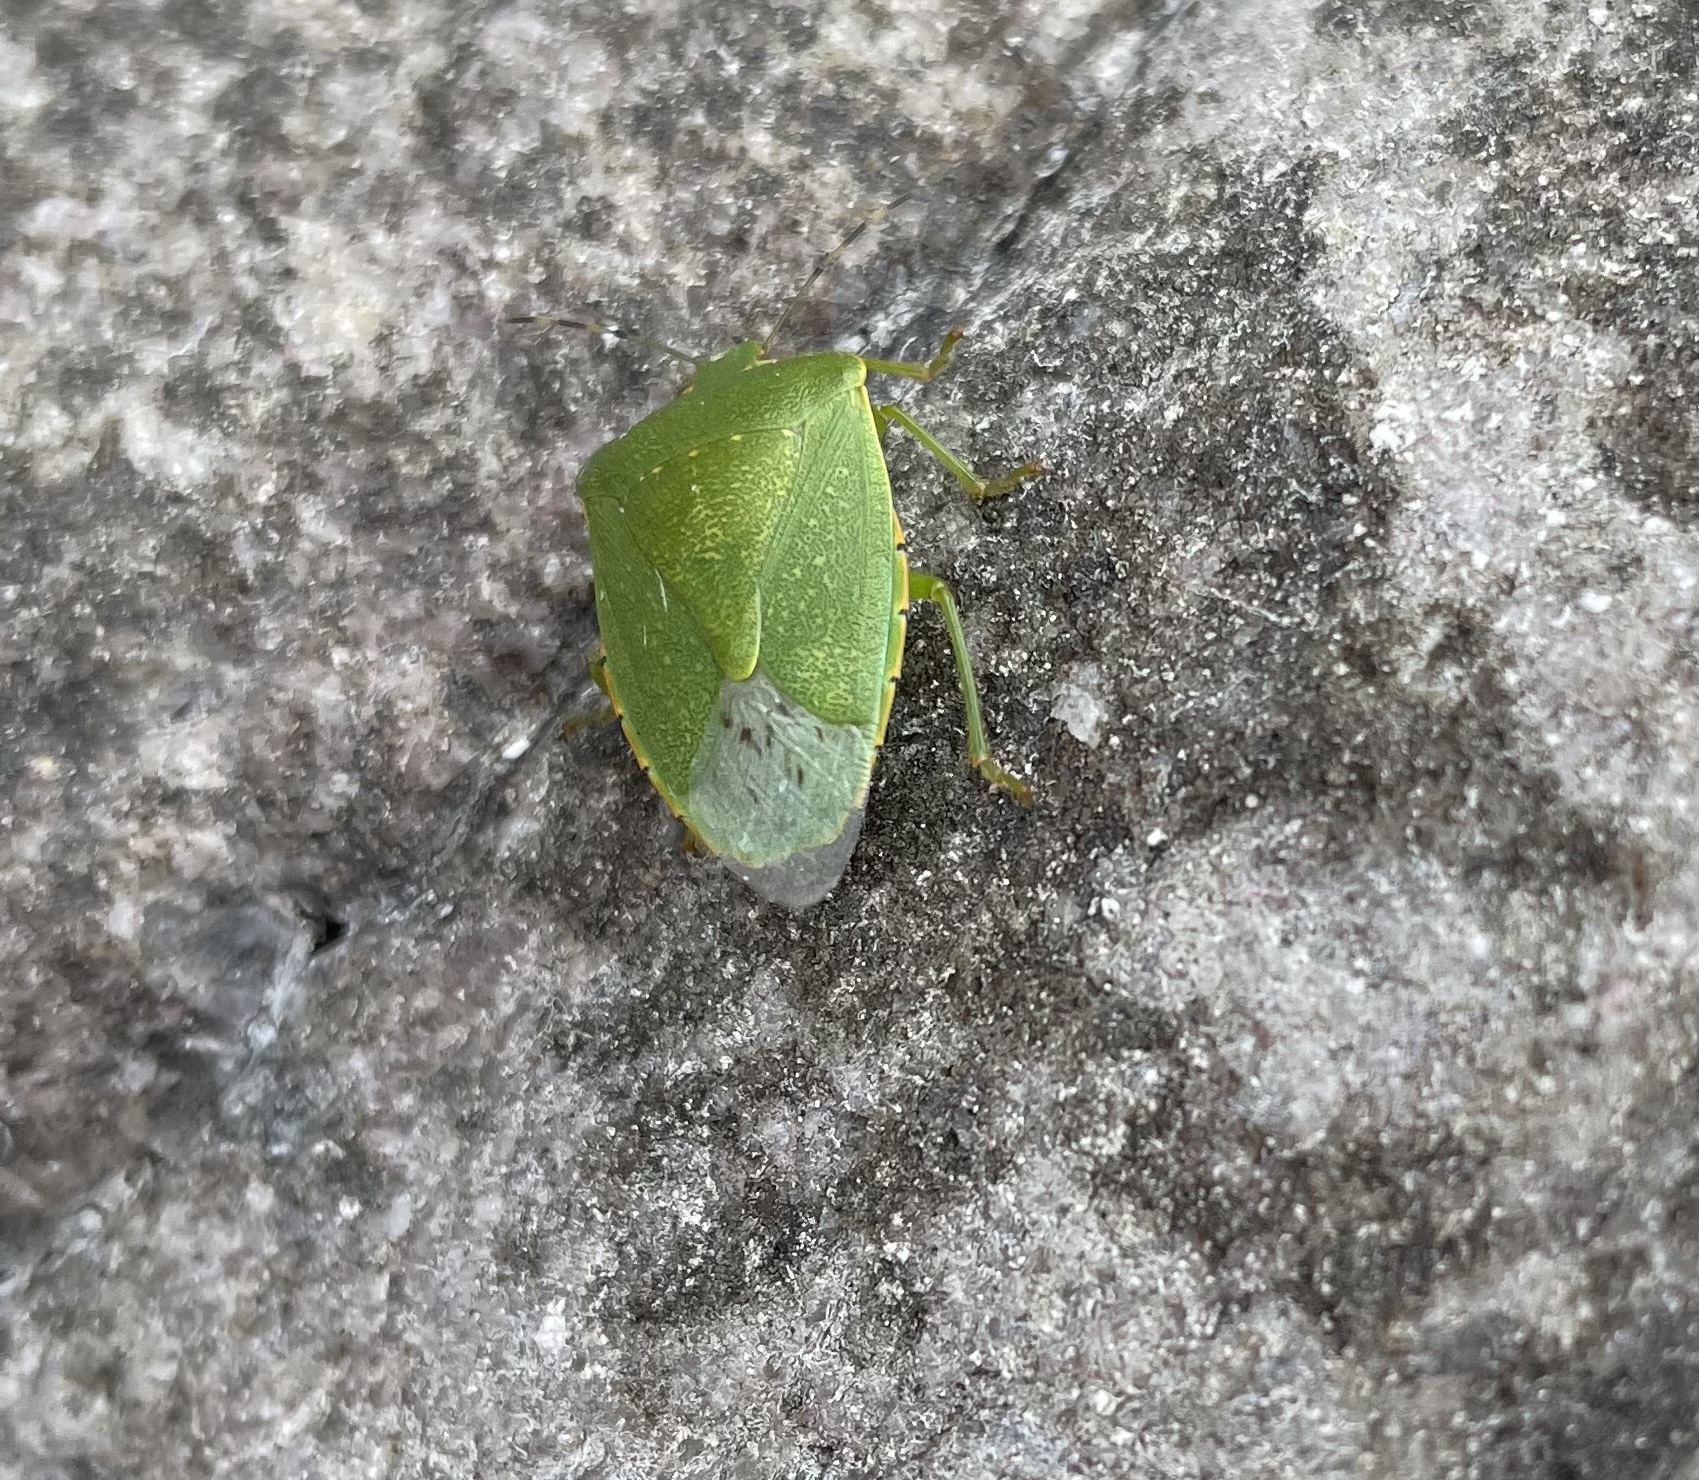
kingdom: Animalia
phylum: Arthropoda
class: Insecta
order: Hemiptera
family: Pentatomidae
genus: Chinavia
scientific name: Chinavia hilaris
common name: Green stink bug
